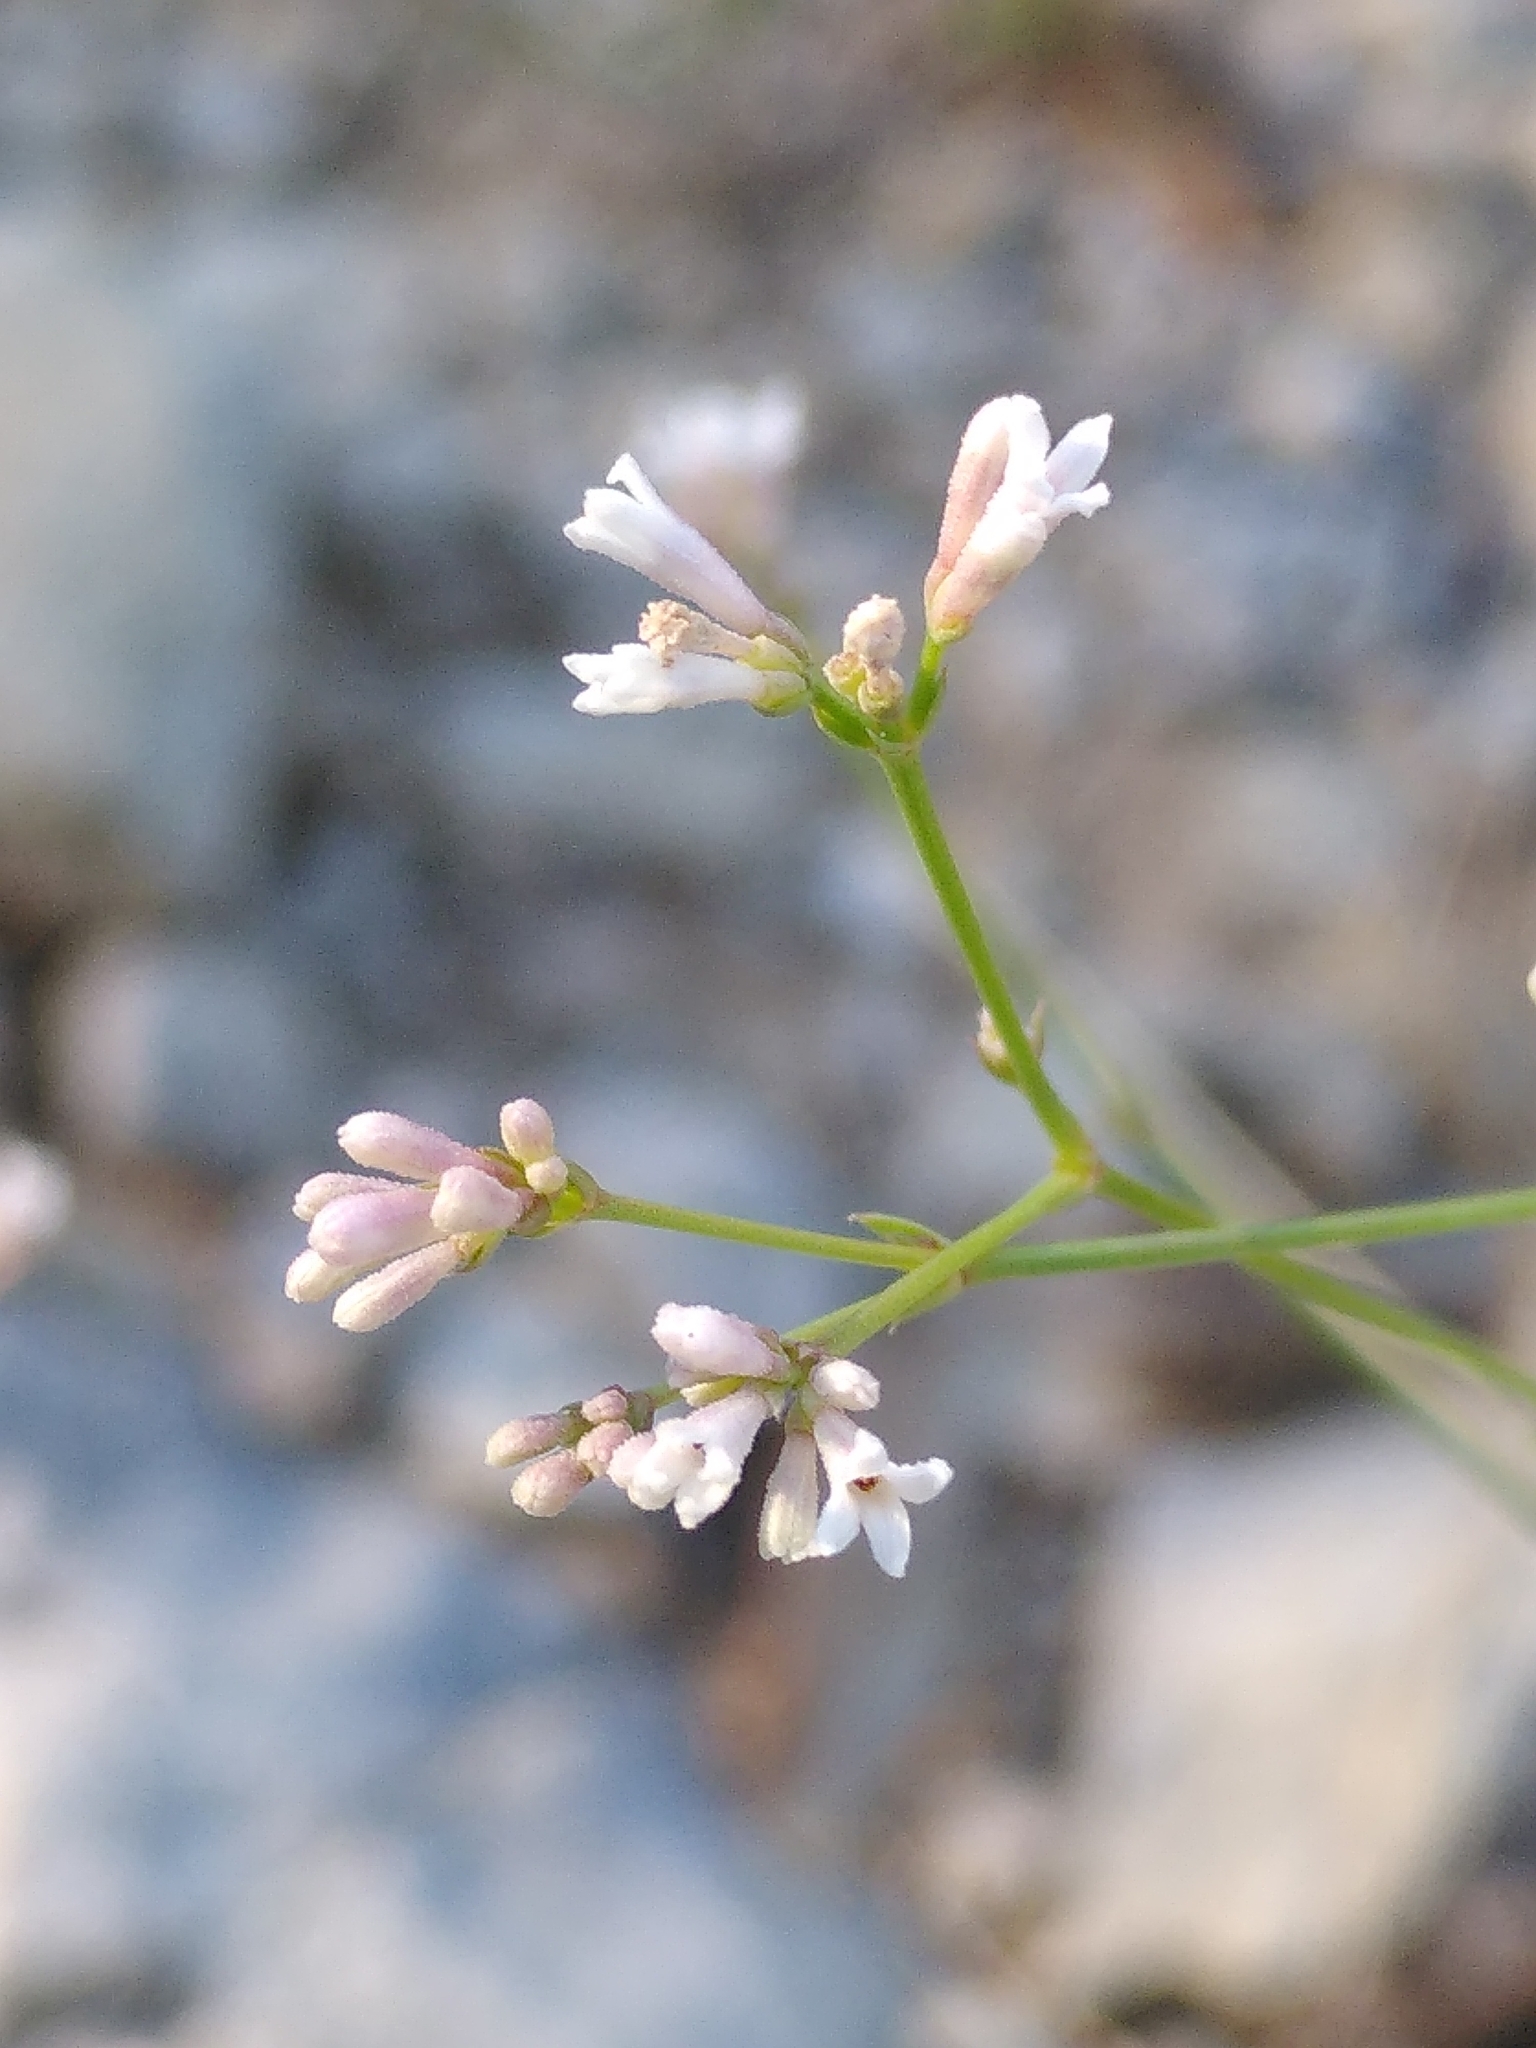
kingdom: Plantae
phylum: Tracheophyta
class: Magnoliopsida
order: Gentianales
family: Rubiaceae
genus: Cynanchica
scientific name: Cynanchica pyrenaica
